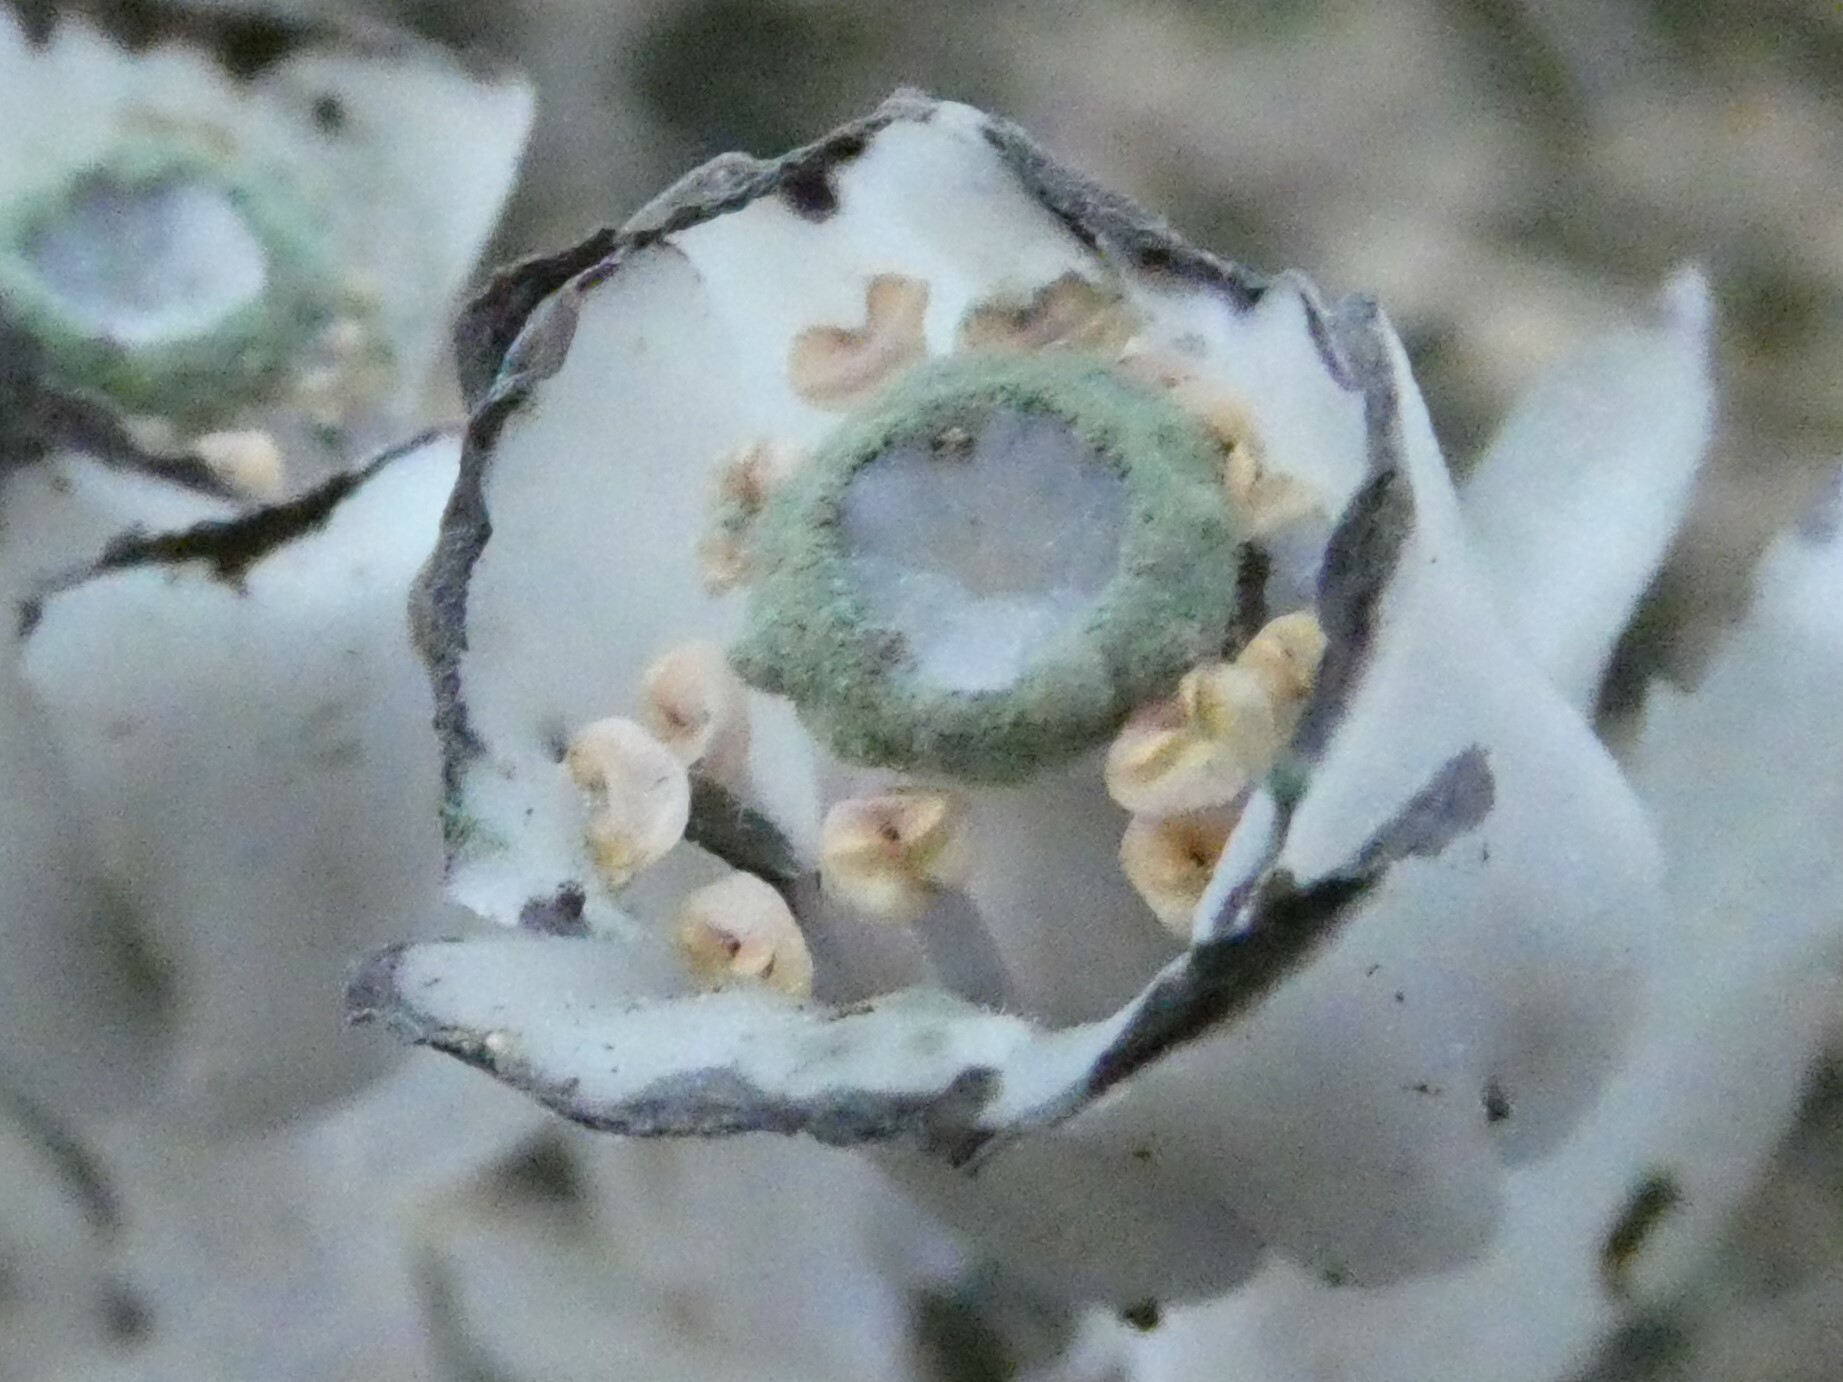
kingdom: Plantae
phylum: Tracheophyta
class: Magnoliopsida
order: Ericales
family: Ericaceae
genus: Monotropa
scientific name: Monotropa uniflora
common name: Convulsion root
